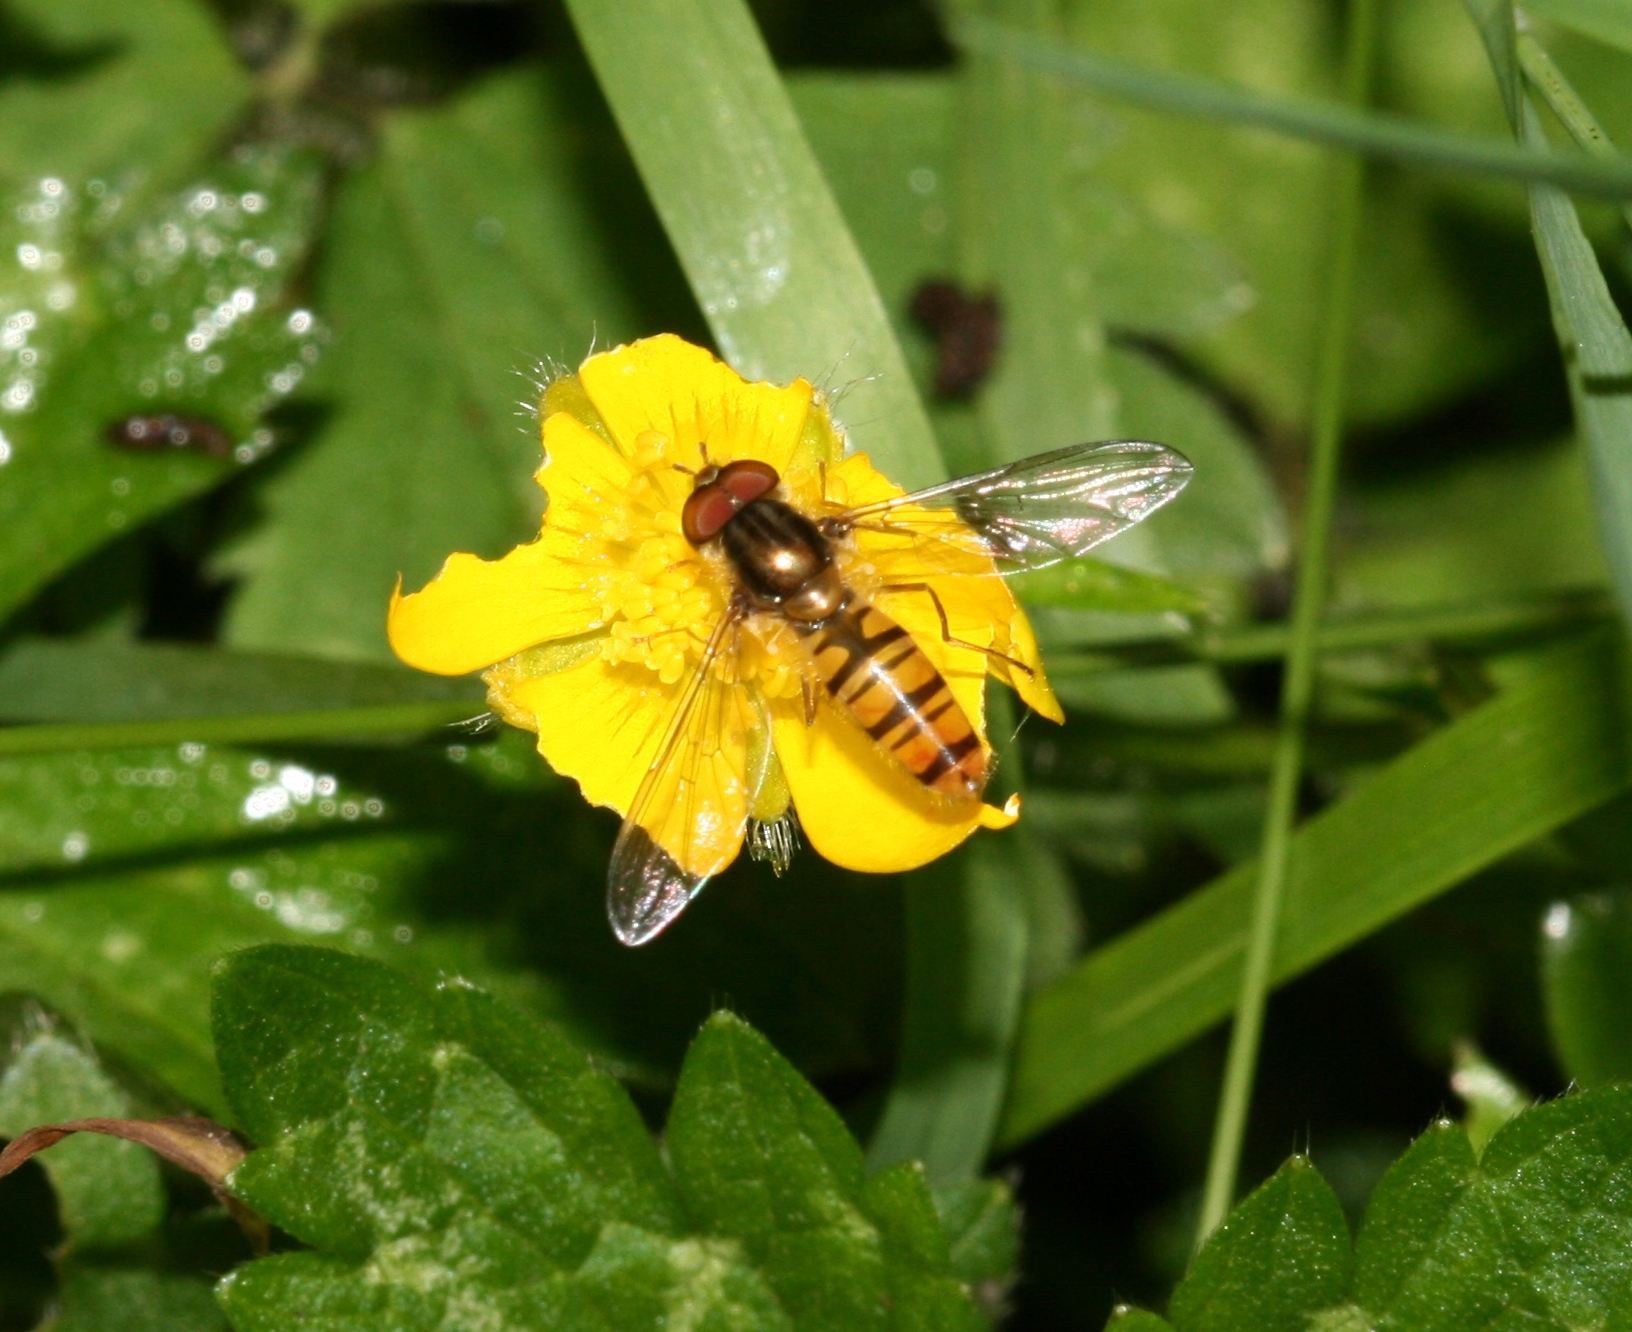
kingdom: Animalia
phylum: Arthropoda
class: Insecta
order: Diptera
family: Syrphidae
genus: Episyrphus
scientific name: Episyrphus balteatus
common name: Marmalade hoverfly
